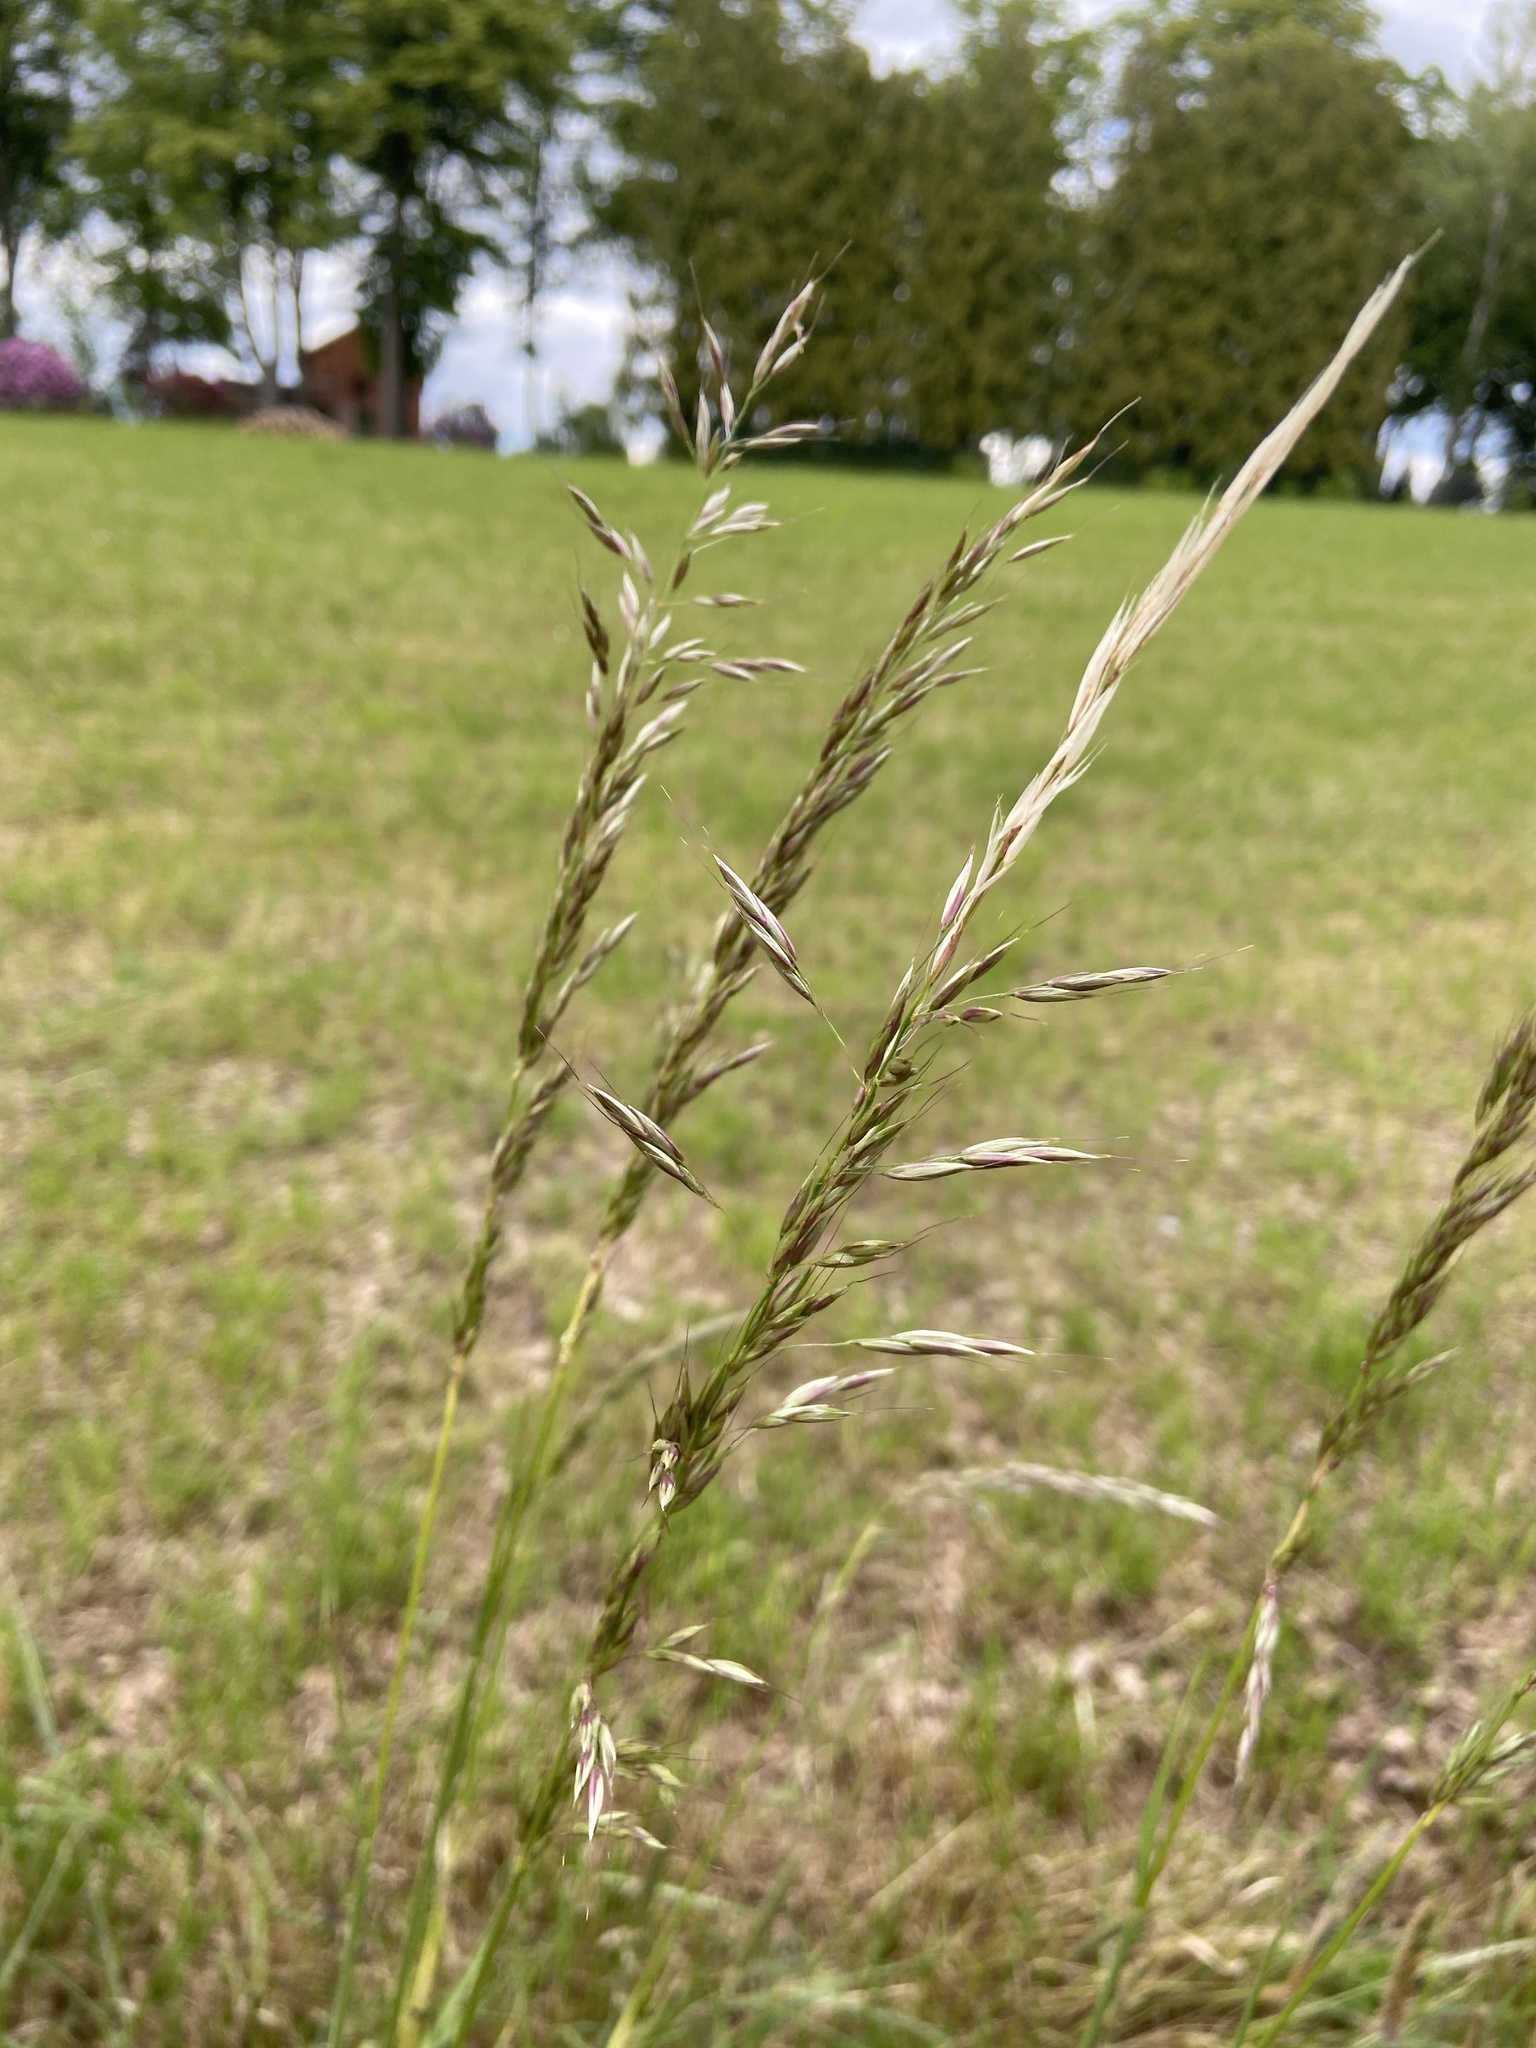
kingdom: Plantae
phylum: Tracheophyta
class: Liliopsida
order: Poales
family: Poaceae
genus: Arrhenatherum
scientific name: Arrhenatherum elatius
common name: Tall oatgrass
